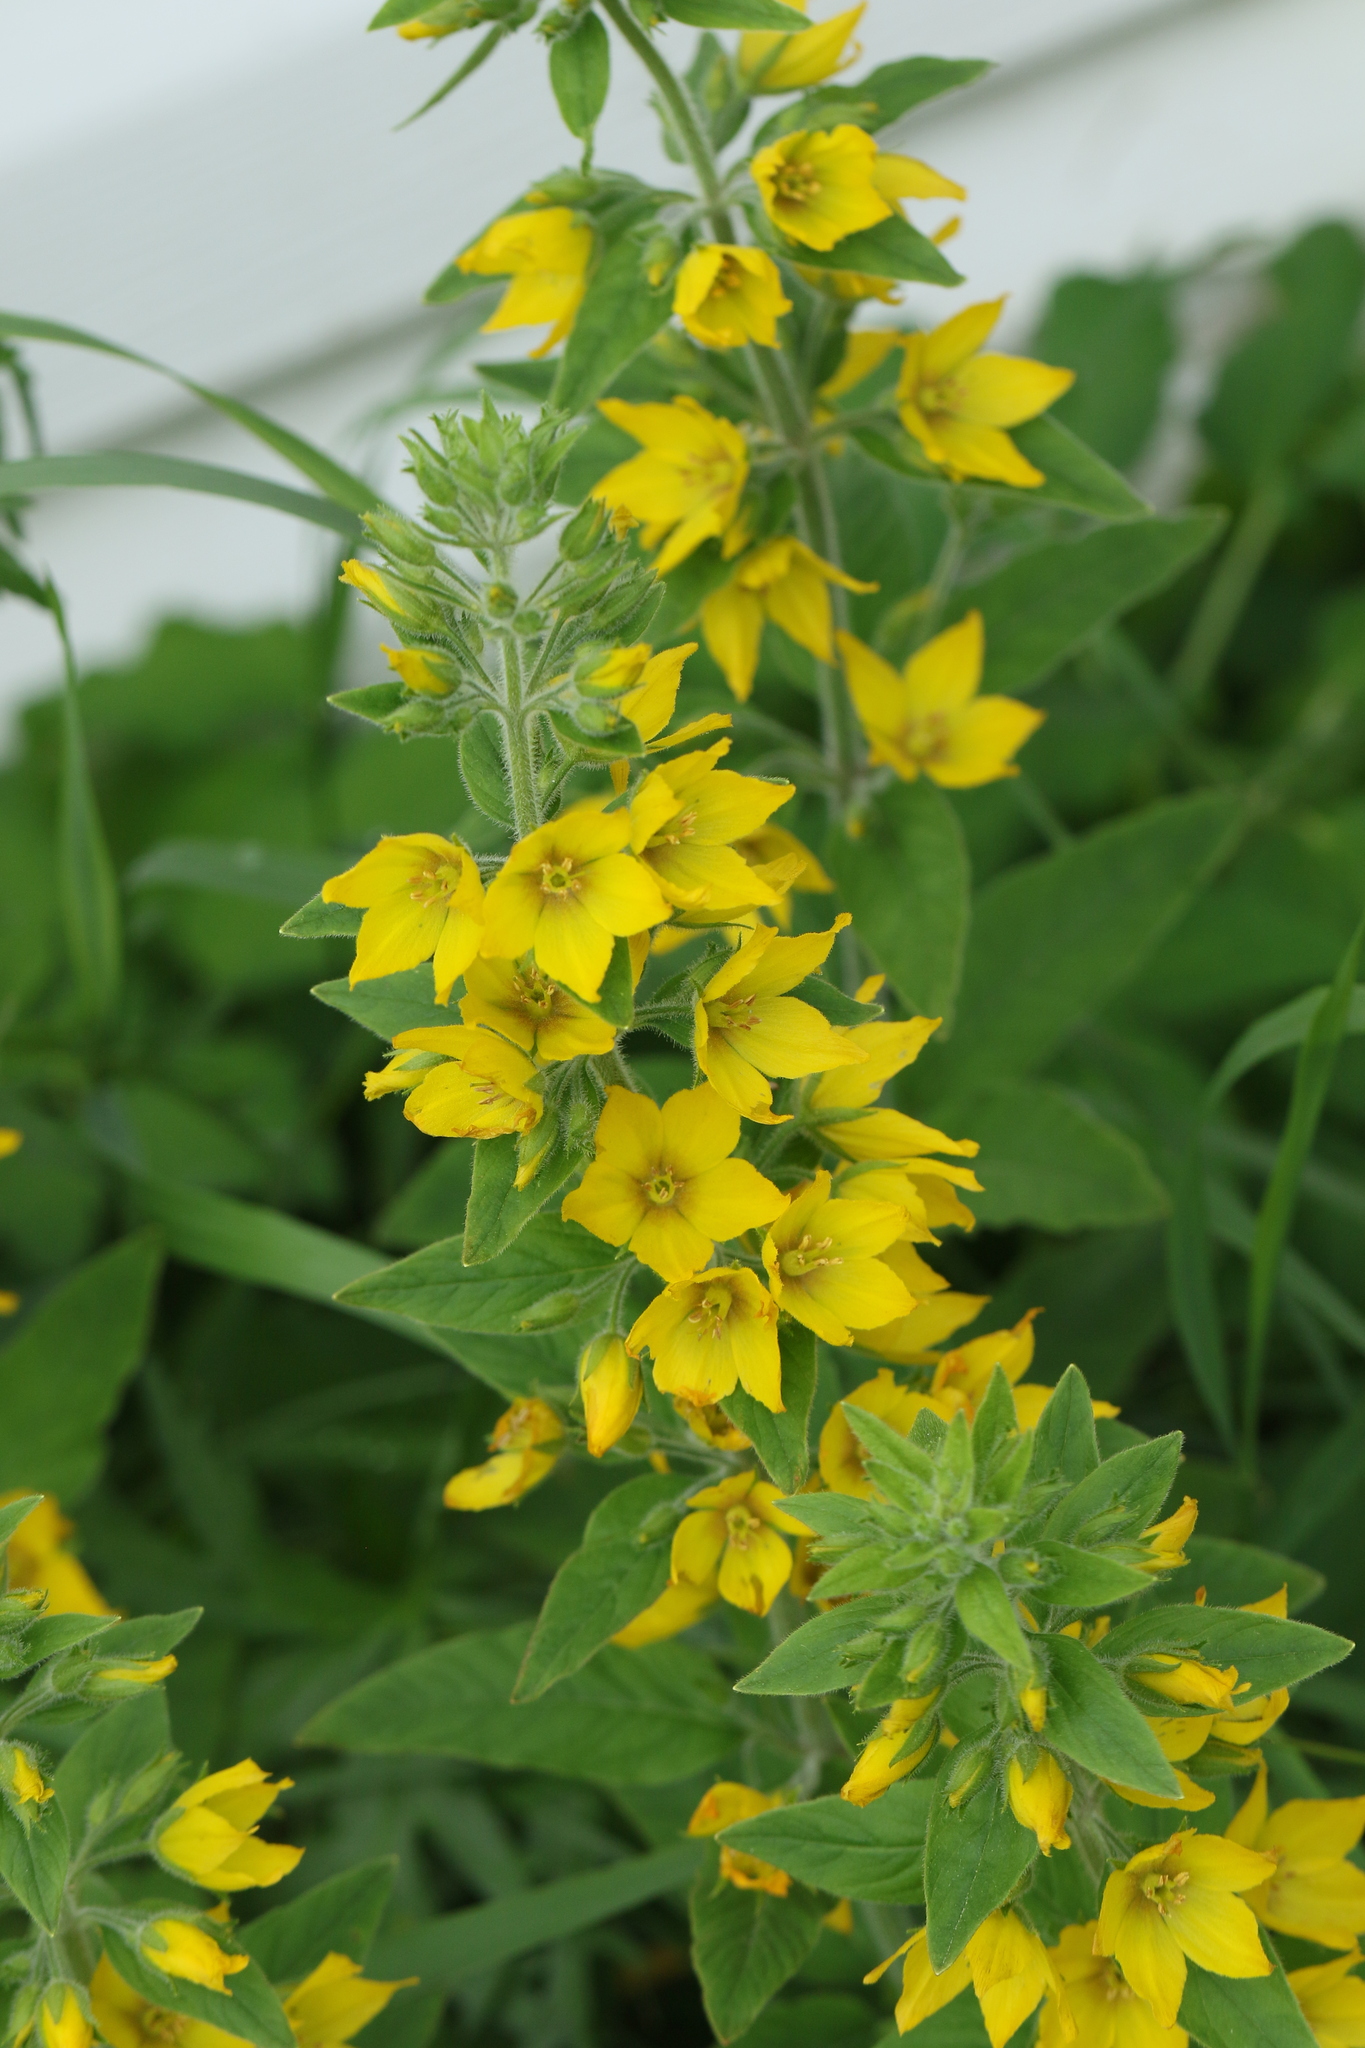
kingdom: Plantae
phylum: Tracheophyta
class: Magnoliopsida
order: Ericales
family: Primulaceae
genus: Lysimachia
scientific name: Lysimachia punctata
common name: Dotted loosestrife
